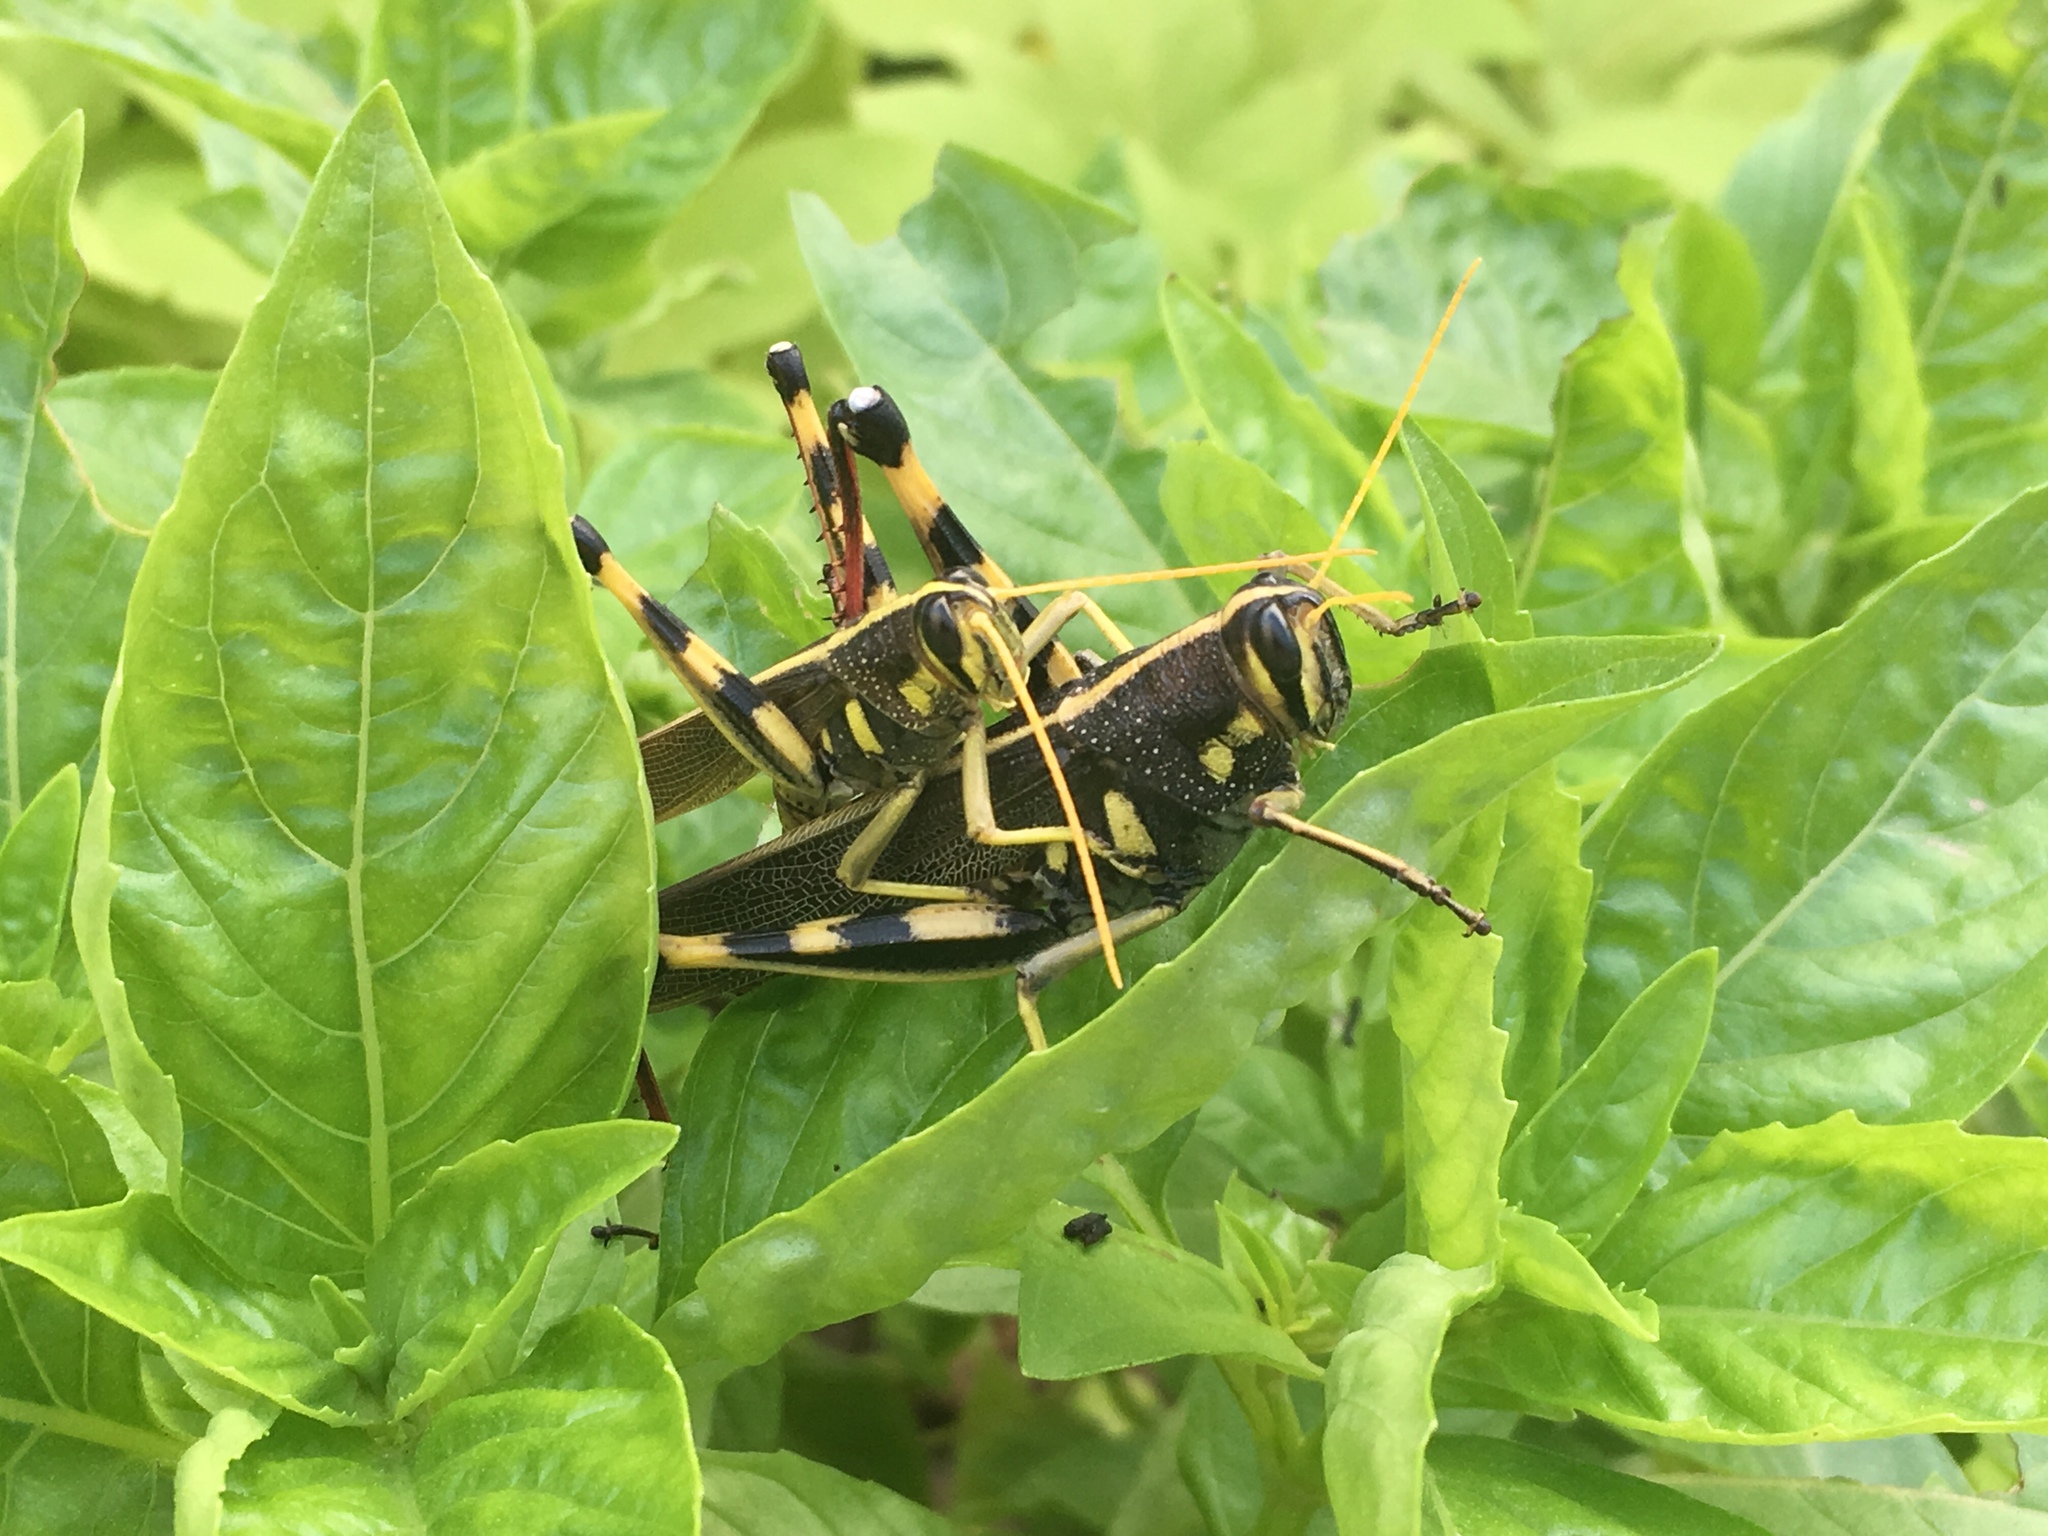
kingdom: Animalia
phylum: Arthropoda
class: Insecta
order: Orthoptera
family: Acrididae
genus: Schistocerca
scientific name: Schistocerca albolineata
